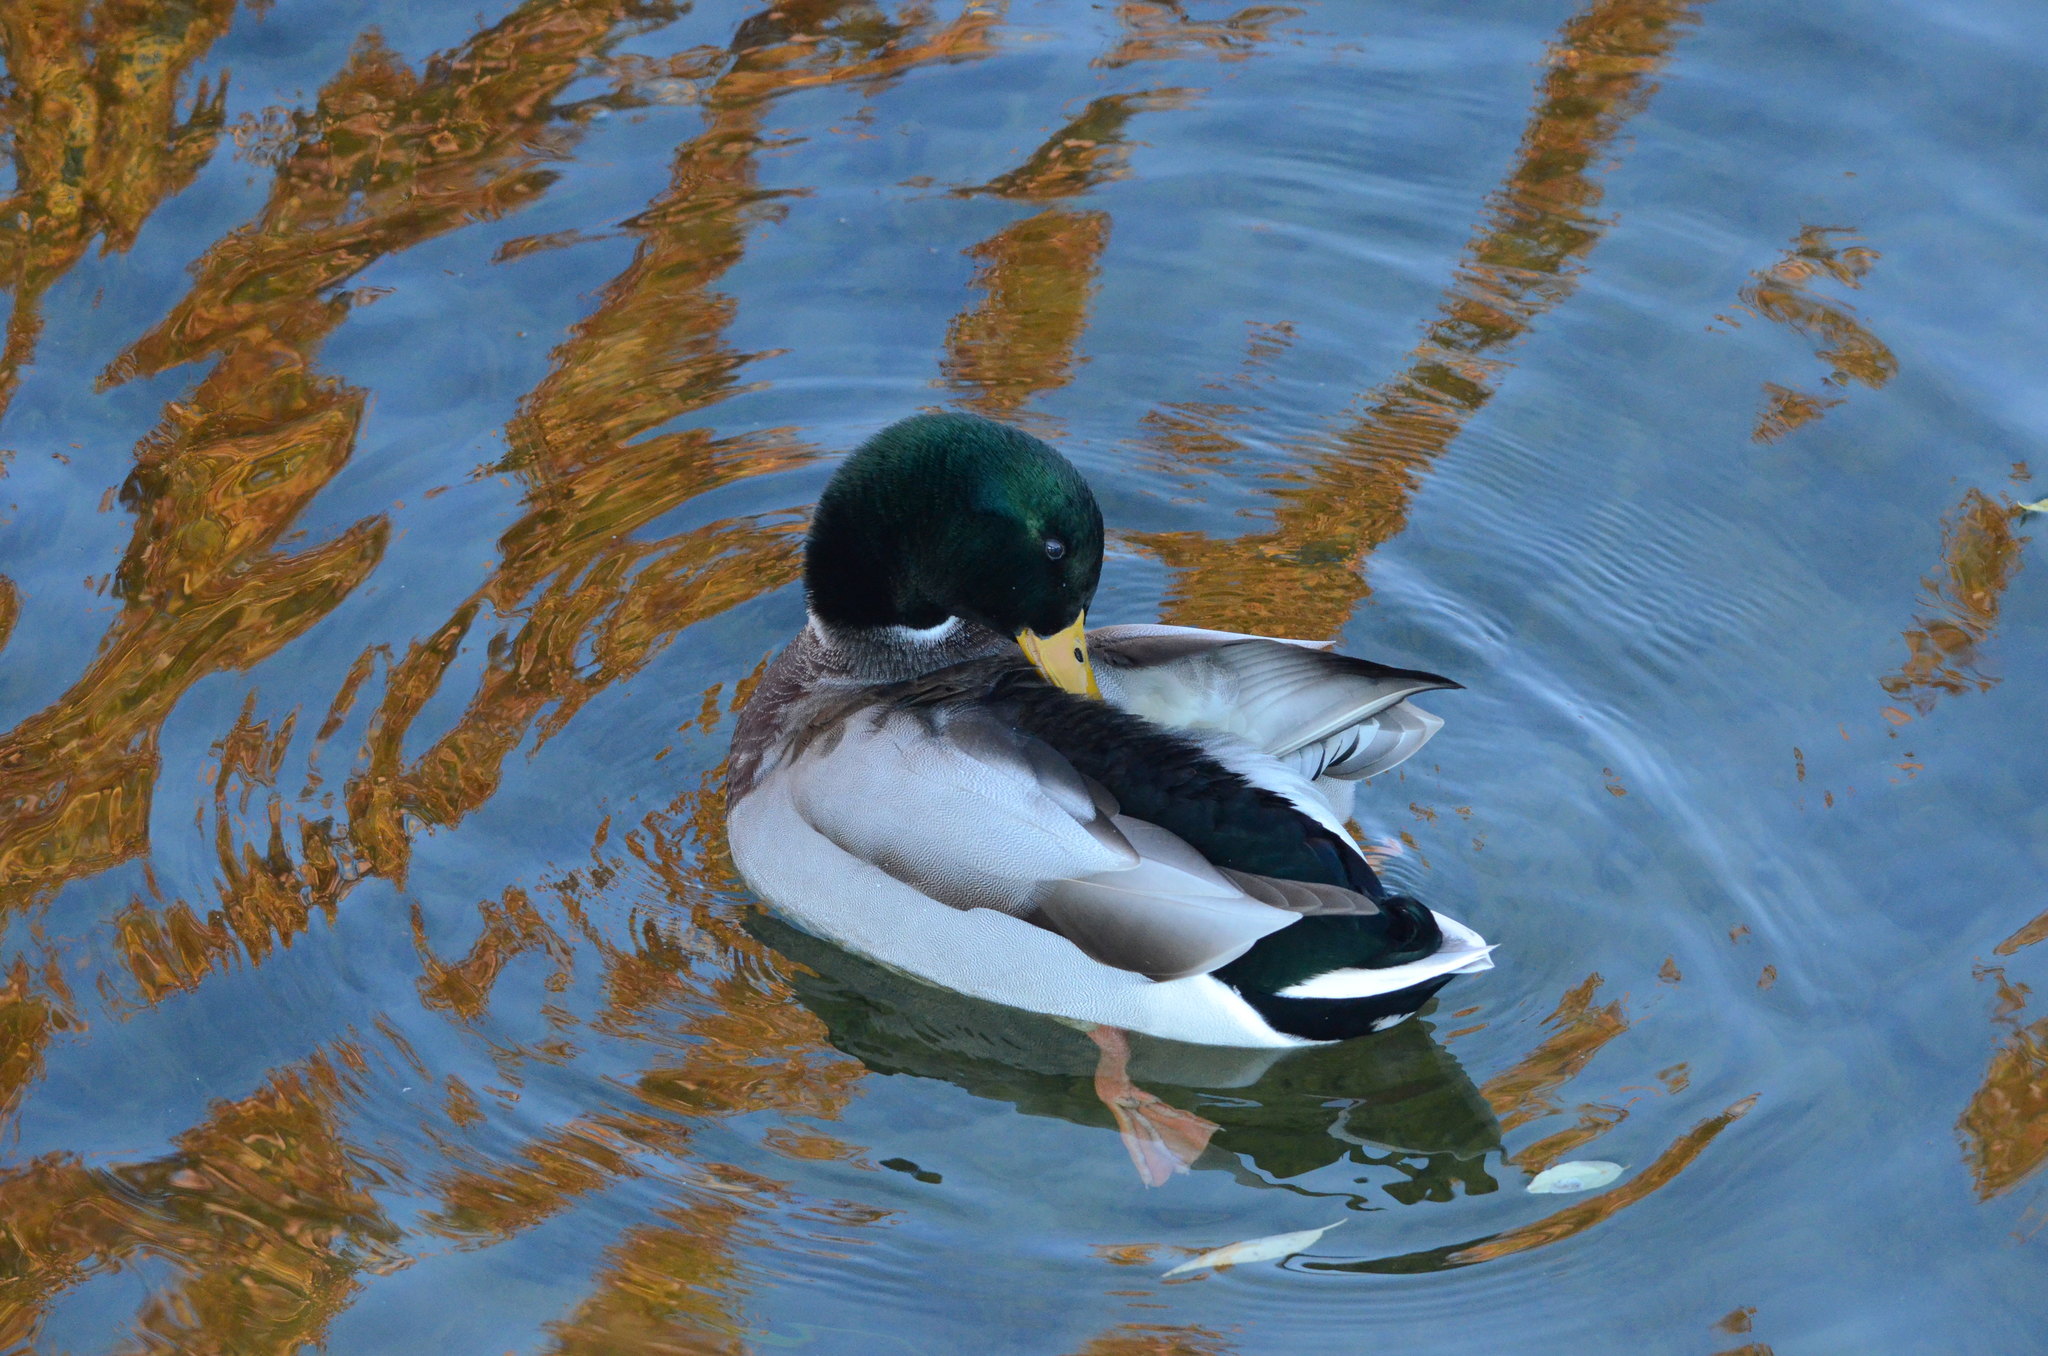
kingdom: Animalia
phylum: Chordata
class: Aves
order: Anseriformes
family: Anatidae
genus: Anas
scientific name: Anas platyrhynchos
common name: Mallard
